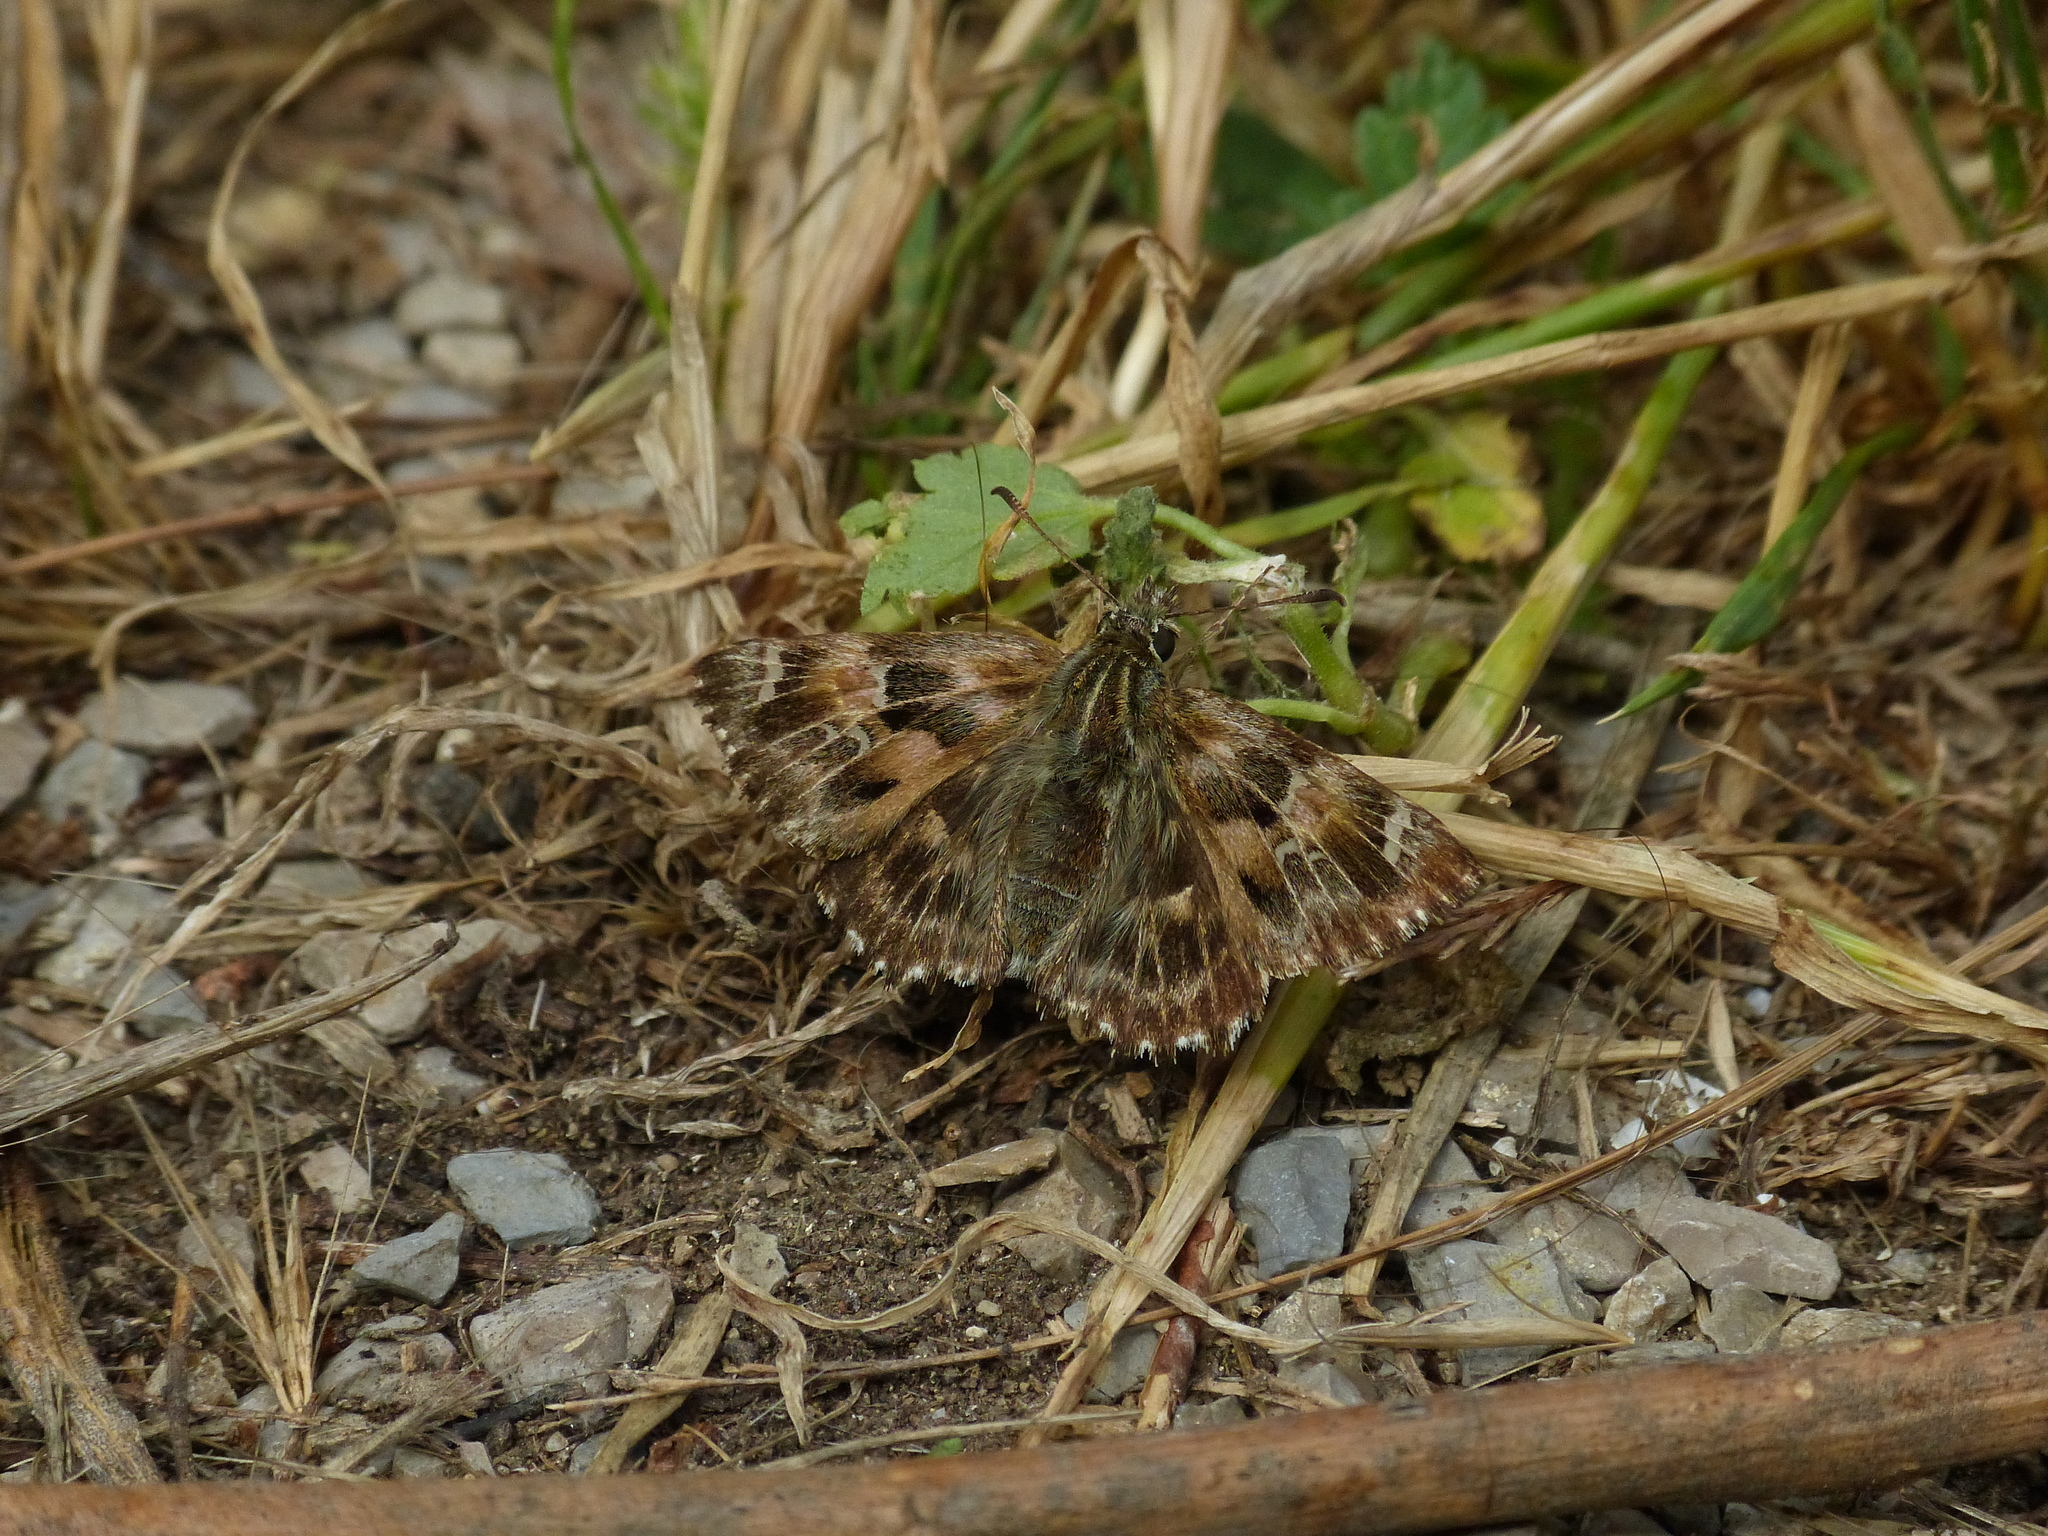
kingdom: Animalia
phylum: Arthropoda
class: Insecta
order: Lepidoptera
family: Hesperiidae
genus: Carcharodus
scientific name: Carcharodus alceae
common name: Mallow skipper
